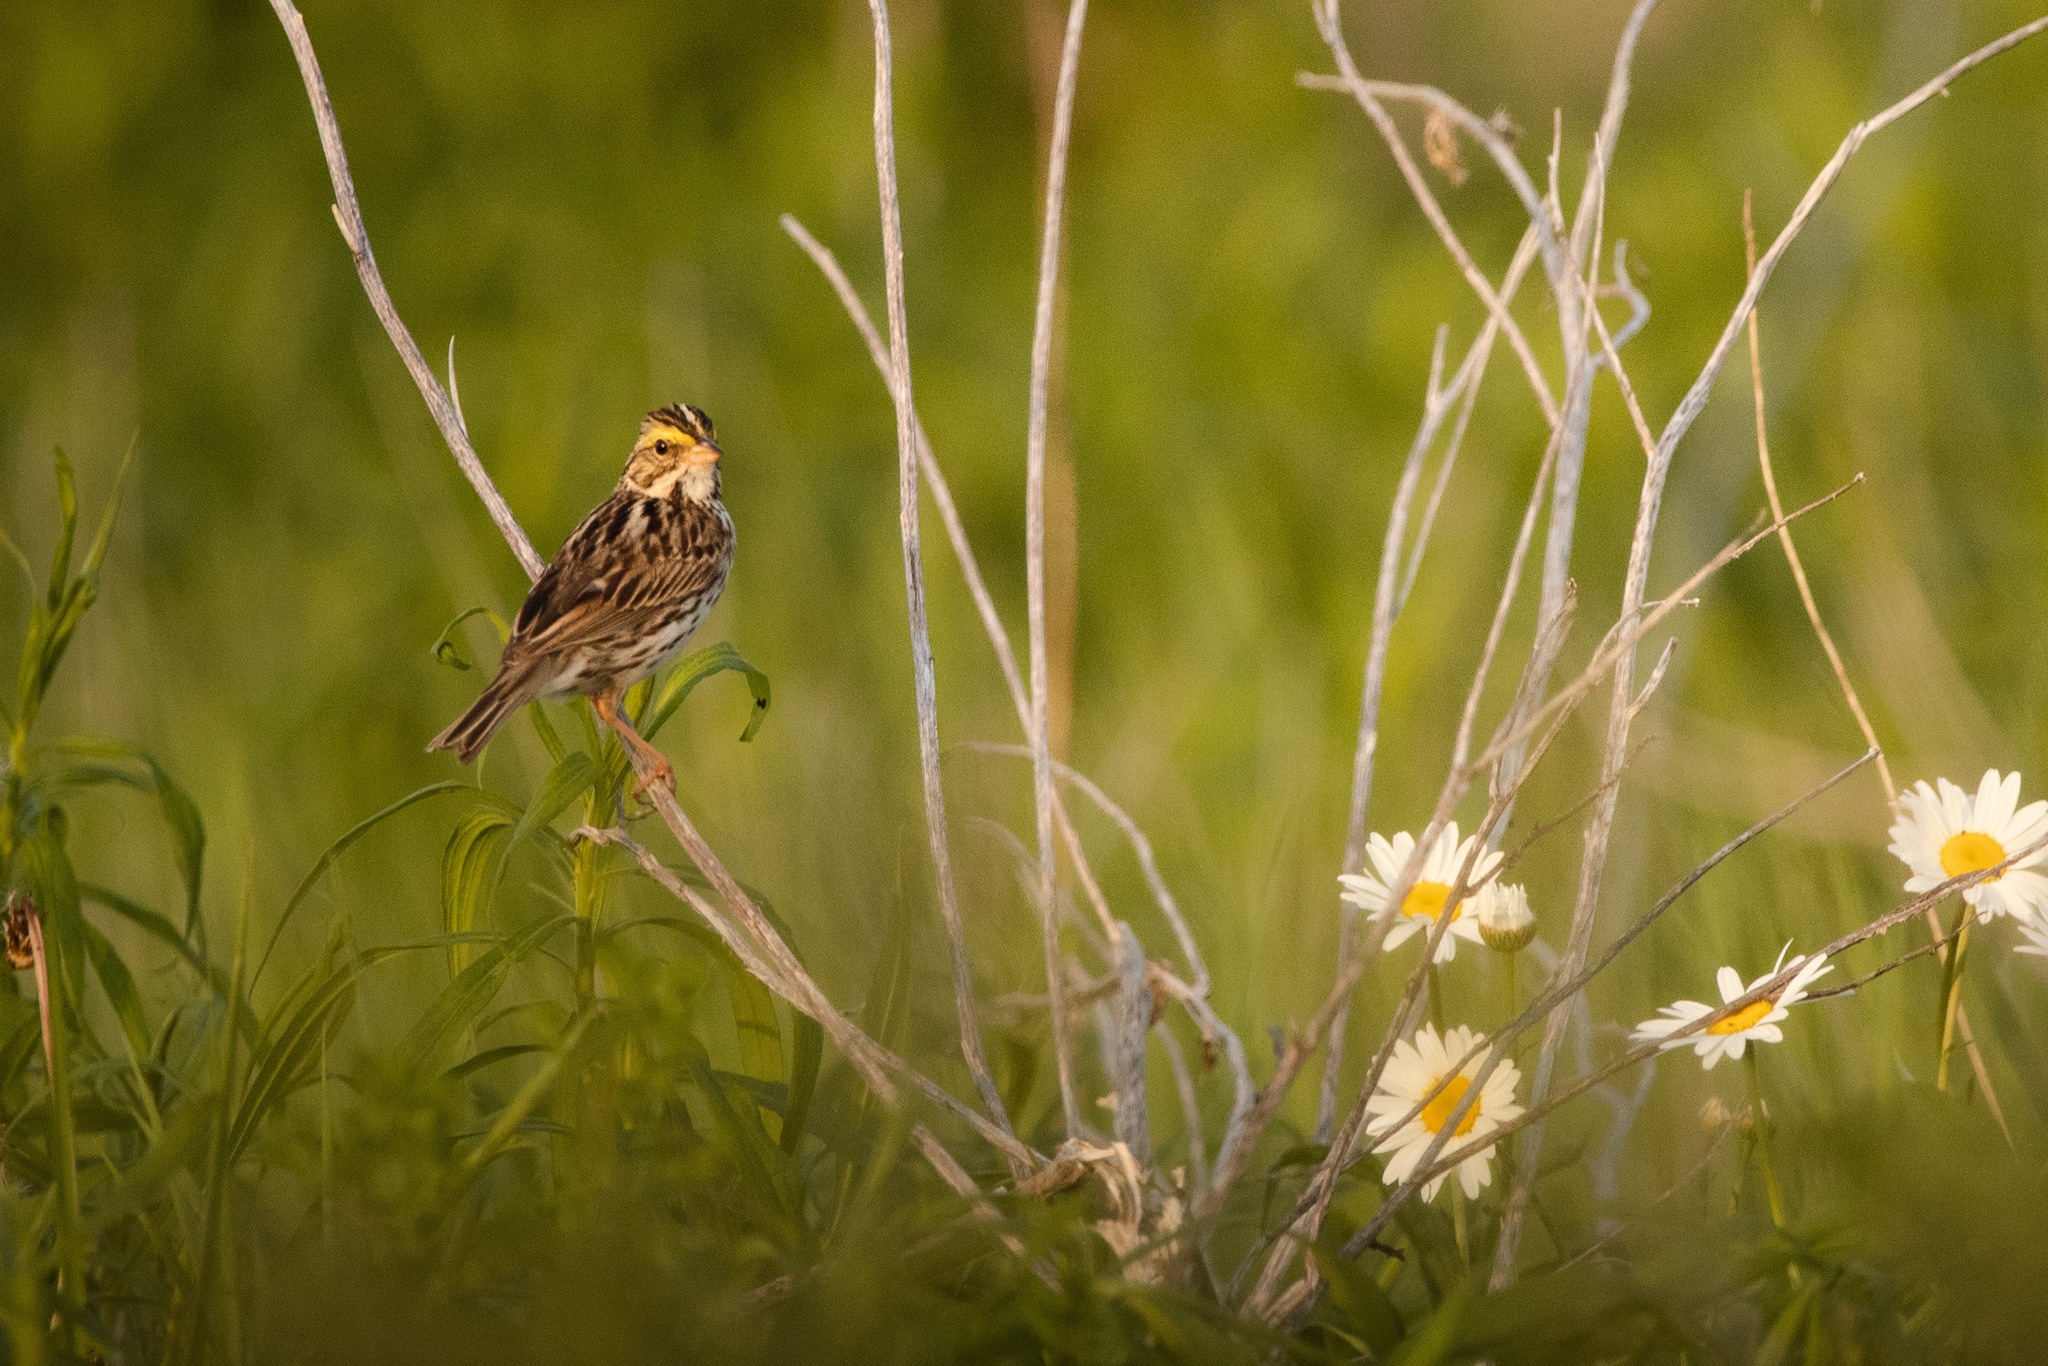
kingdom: Animalia
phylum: Chordata
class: Aves
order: Passeriformes
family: Passerellidae
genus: Passerculus
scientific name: Passerculus sandwichensis
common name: Savannah sparrow
